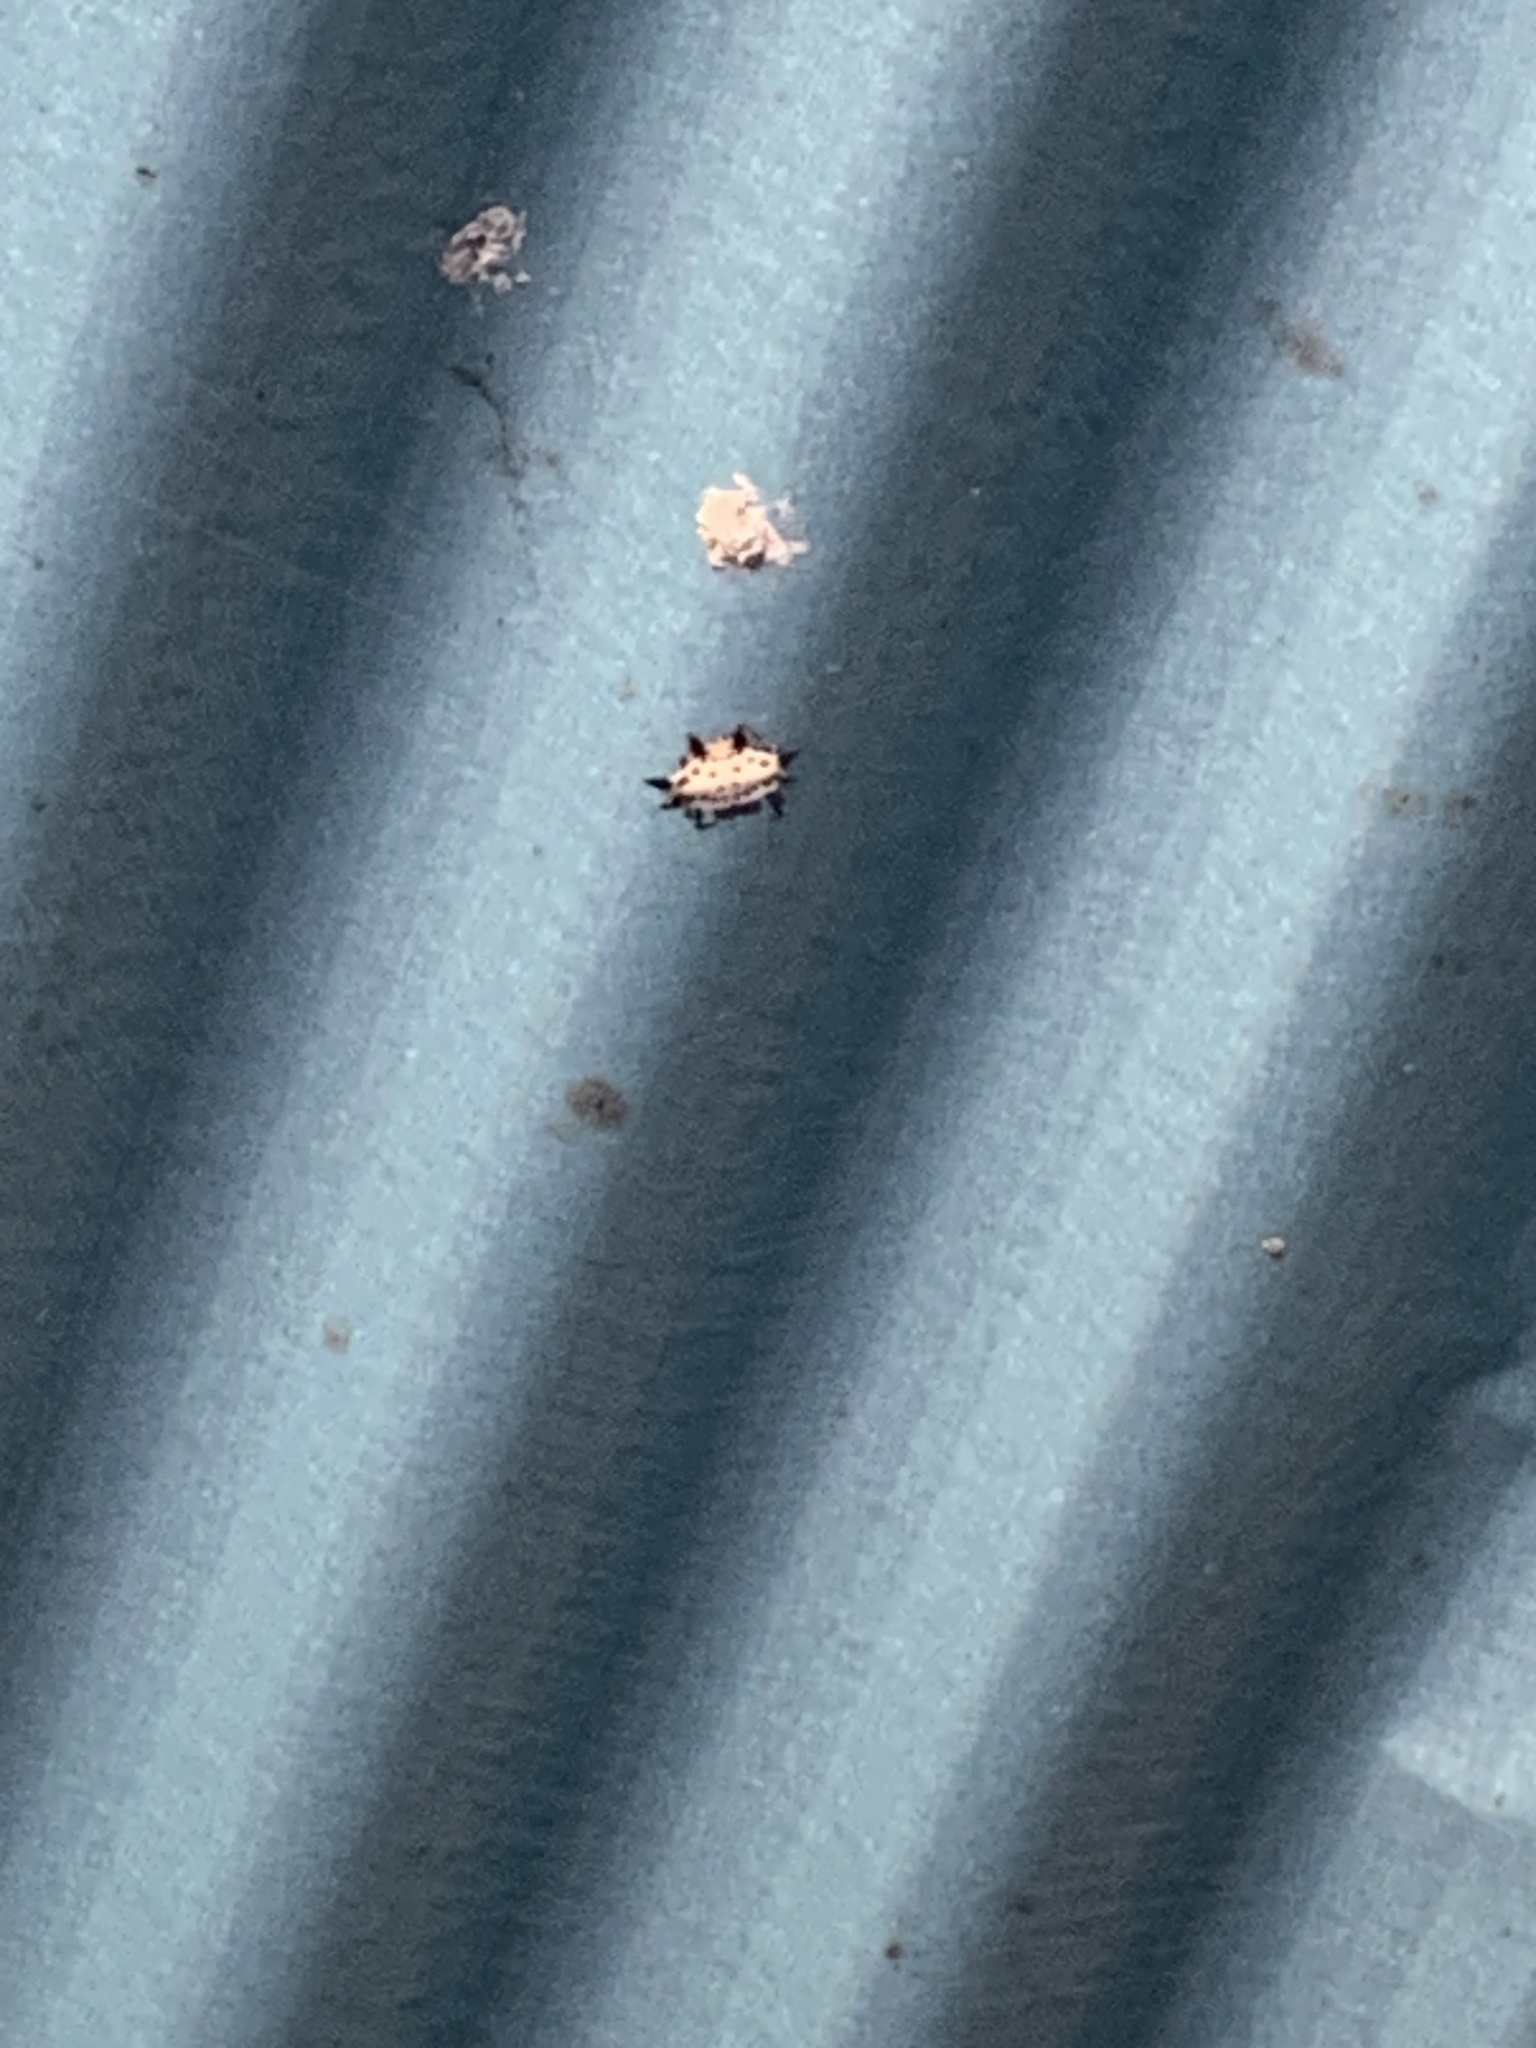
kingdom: Animalia
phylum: Arthropoda
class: Arachnida
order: Araneae
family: Araneidae
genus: Gasteracantha
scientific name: Gasteracantha cancriformis
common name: Orb weavers
